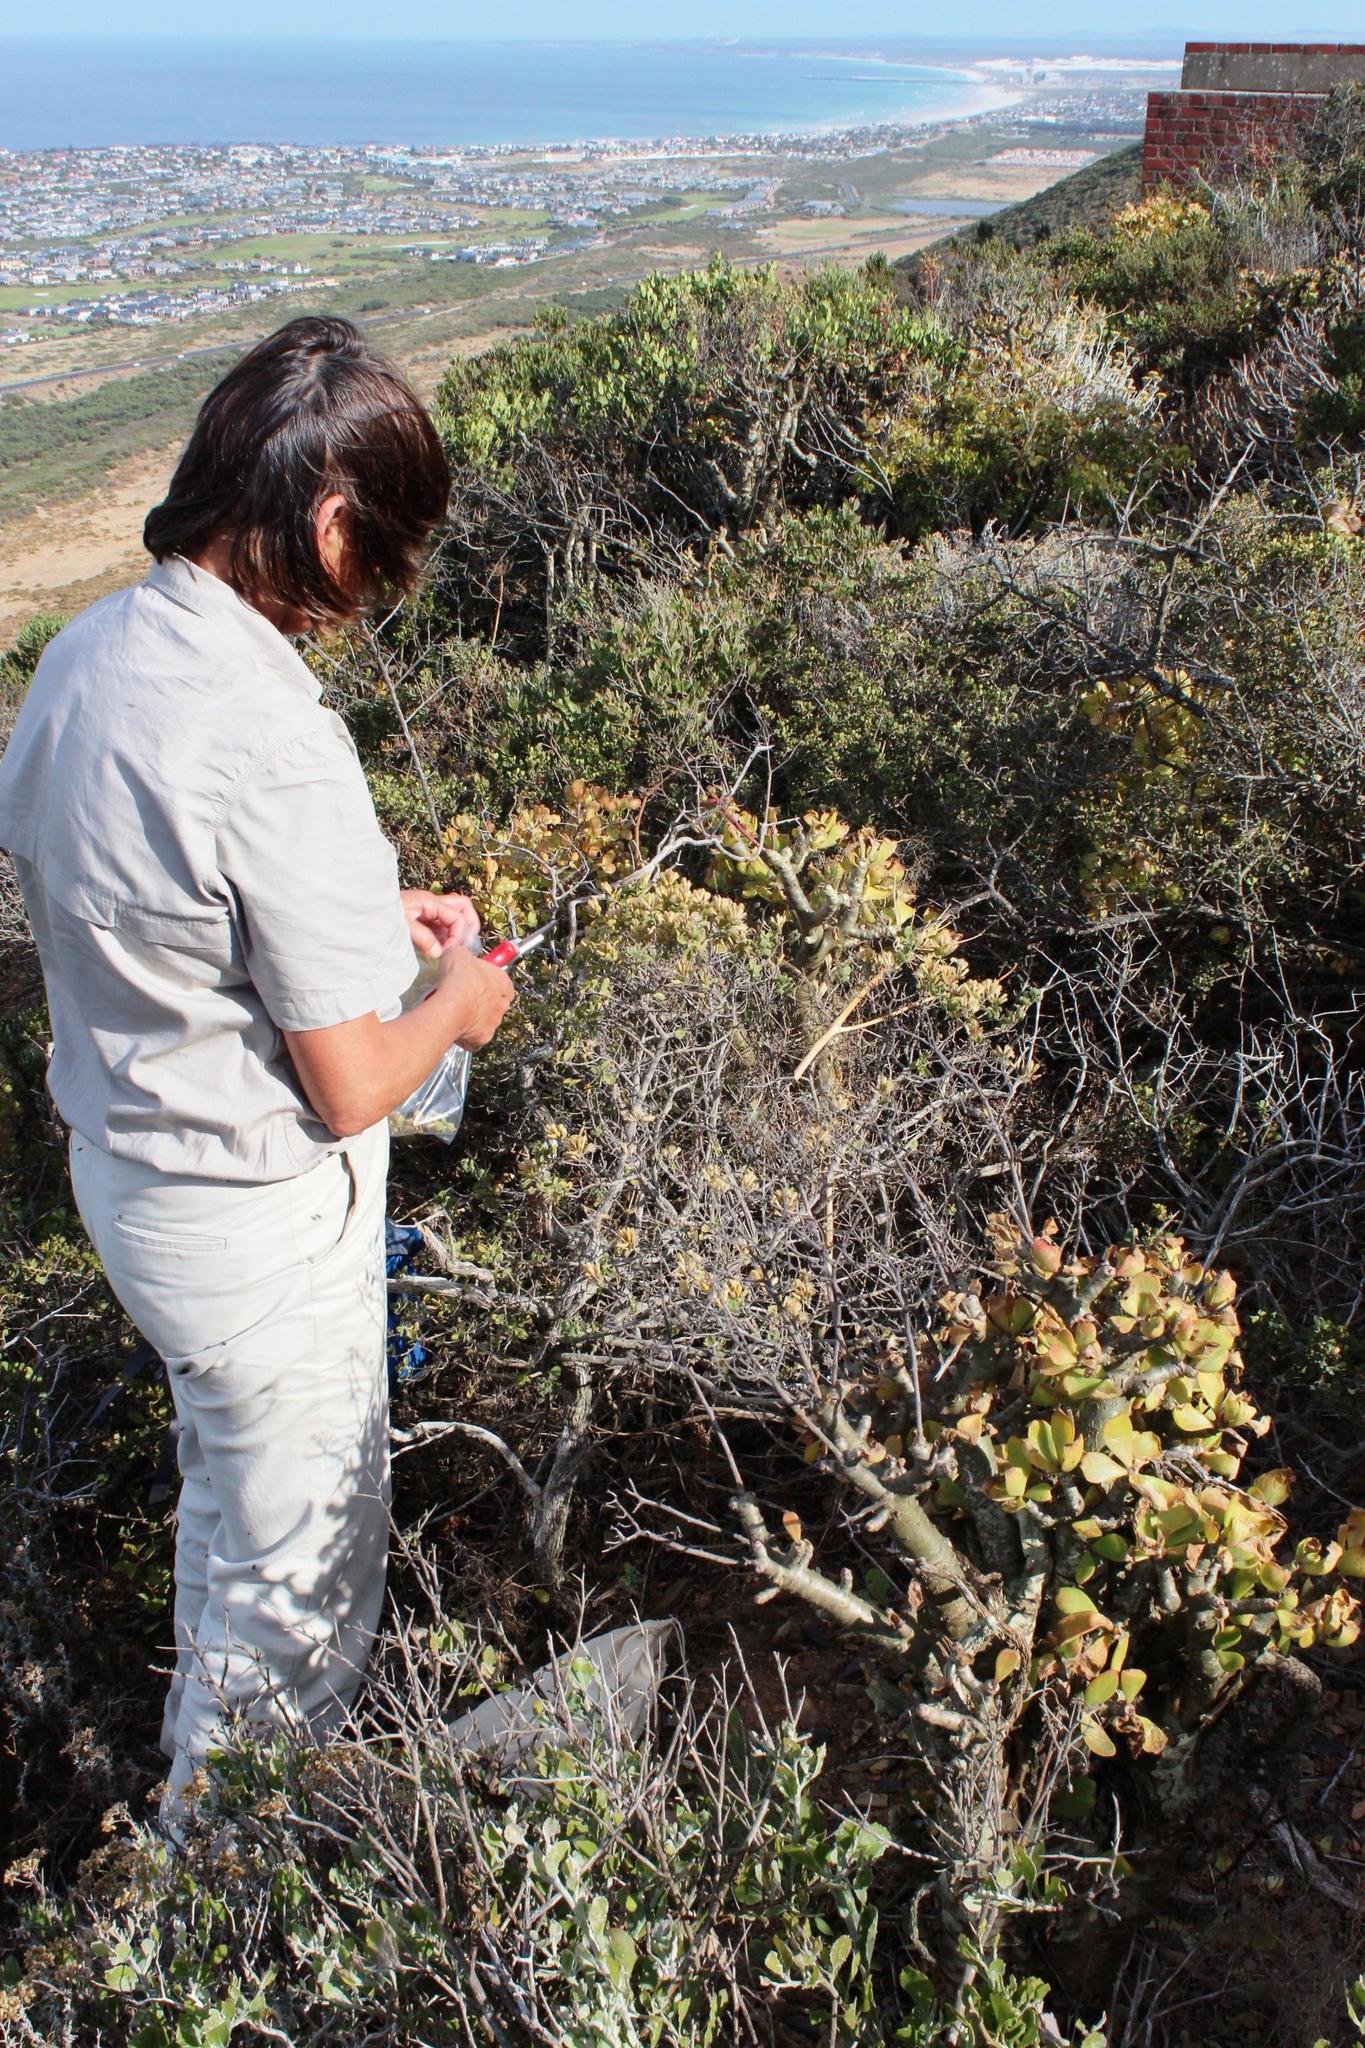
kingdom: Plantae
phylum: Tracheophyta
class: Magnoliopsida
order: Asterales
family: Asteraceae
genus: Pteronia
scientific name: Pteronia divaricata
